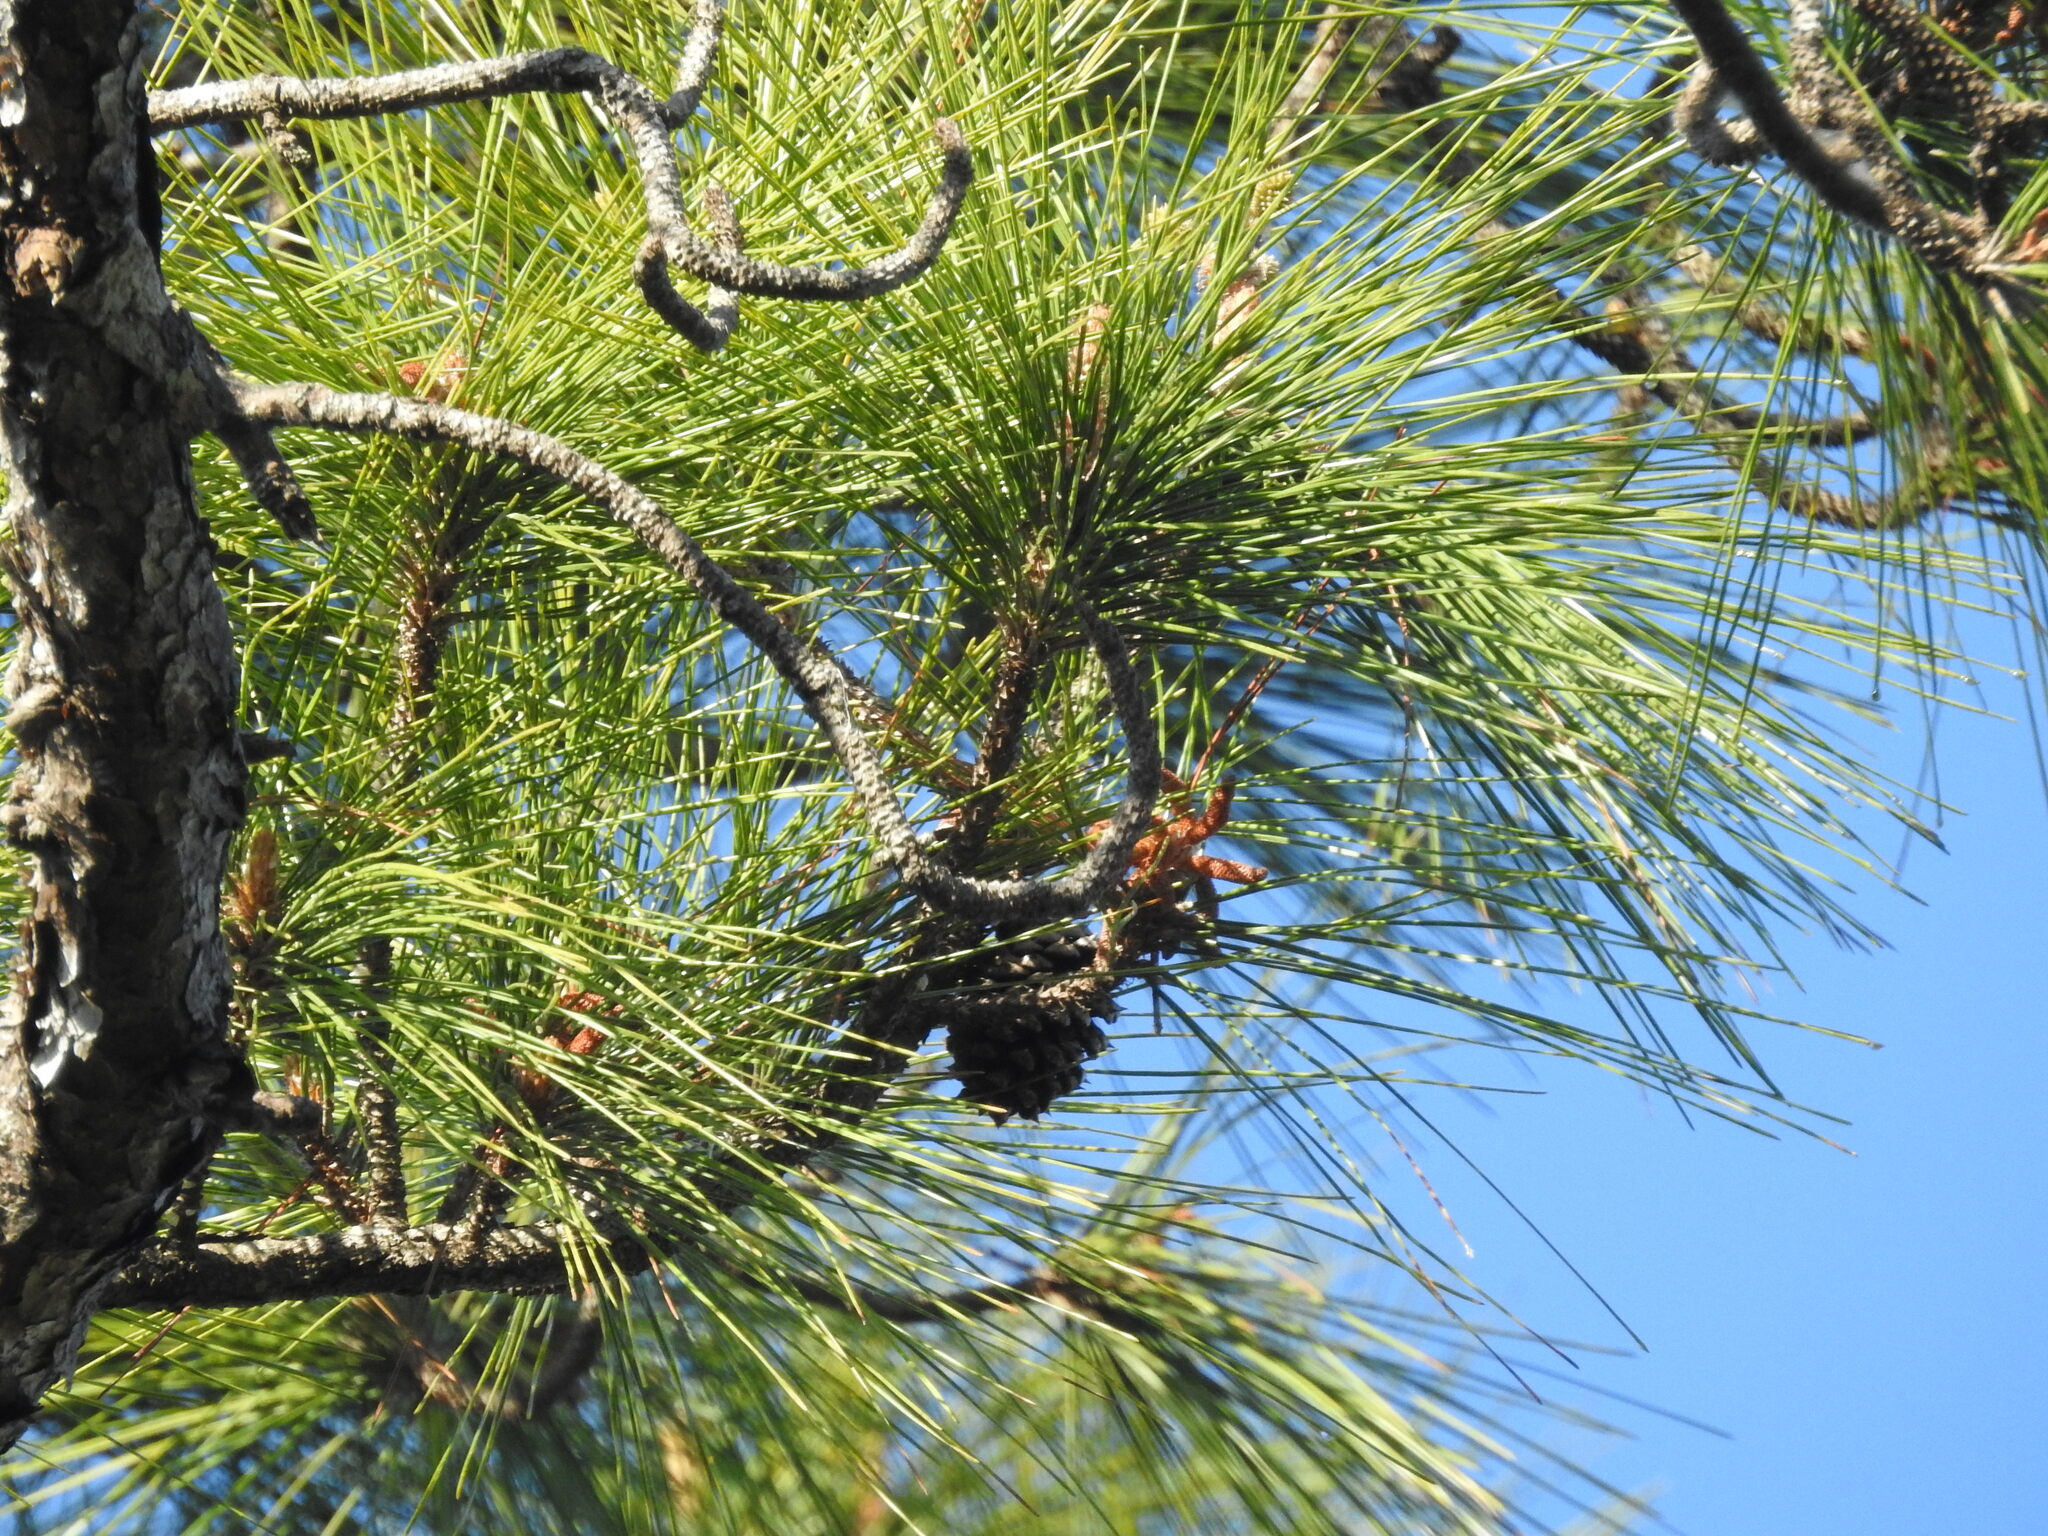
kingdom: Plantae
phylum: Tracheophyta
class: Pinopsida
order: Pinales
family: Pinaceae
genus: Pinus
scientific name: Pinus elliottii
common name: Slash pine
